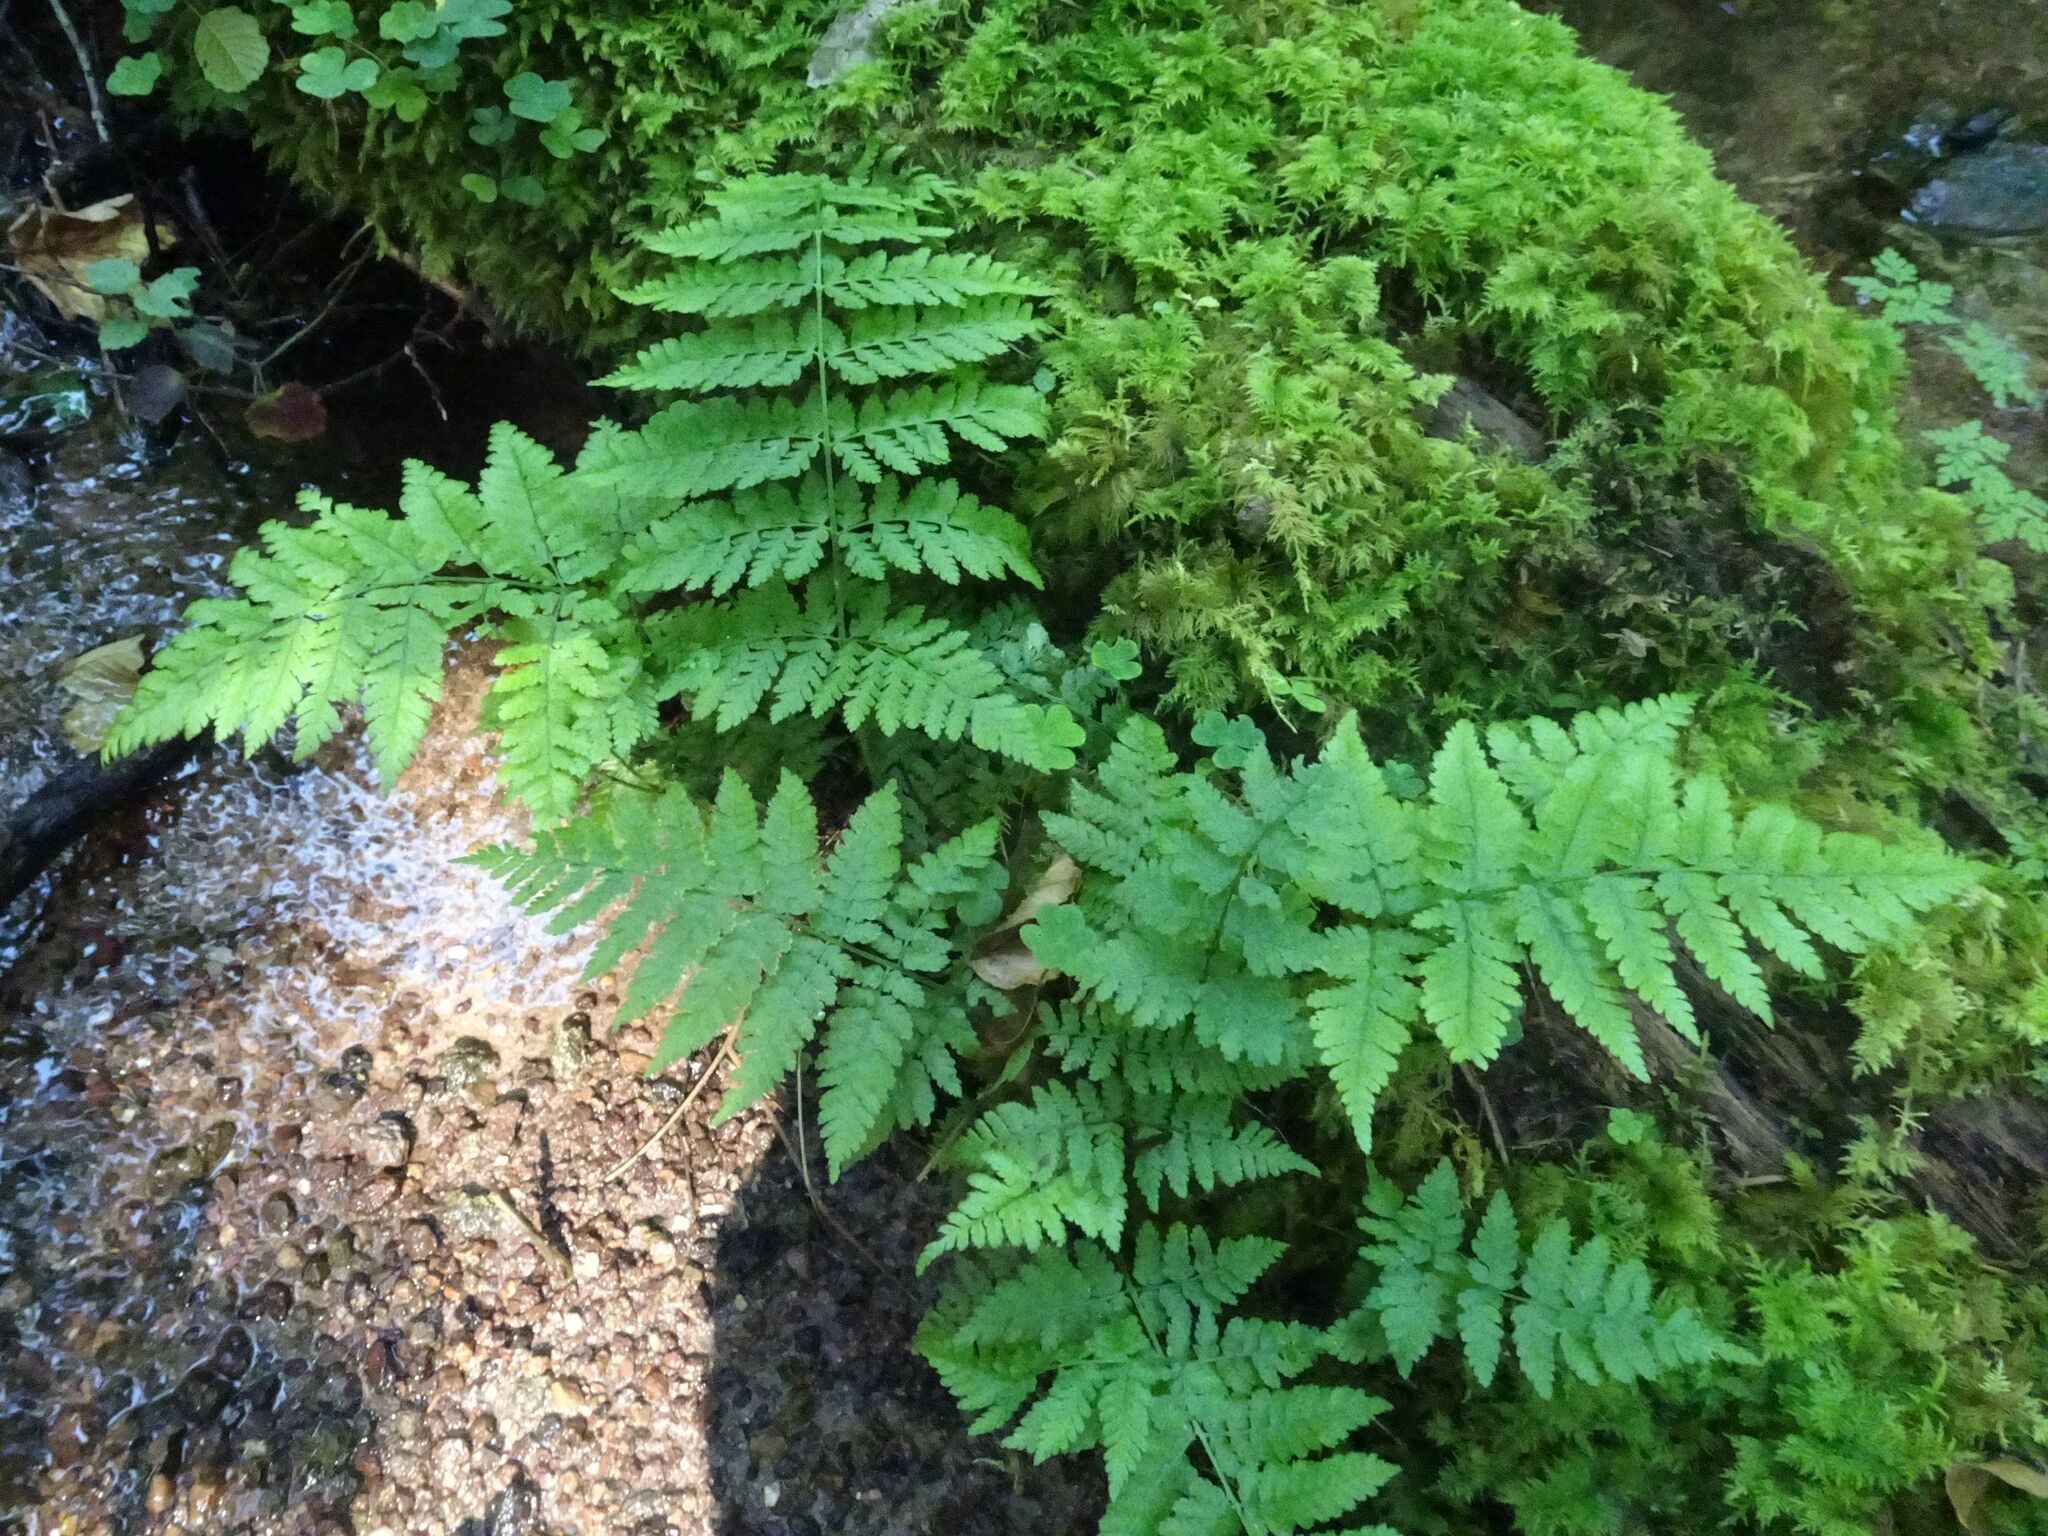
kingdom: Plantae
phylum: Tracheophyta
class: Polypodiopsida
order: Polypodiales
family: Dryopteridaceae
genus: Dryopteris
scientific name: Dryopteris dilatata
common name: Broad buckler-fern
